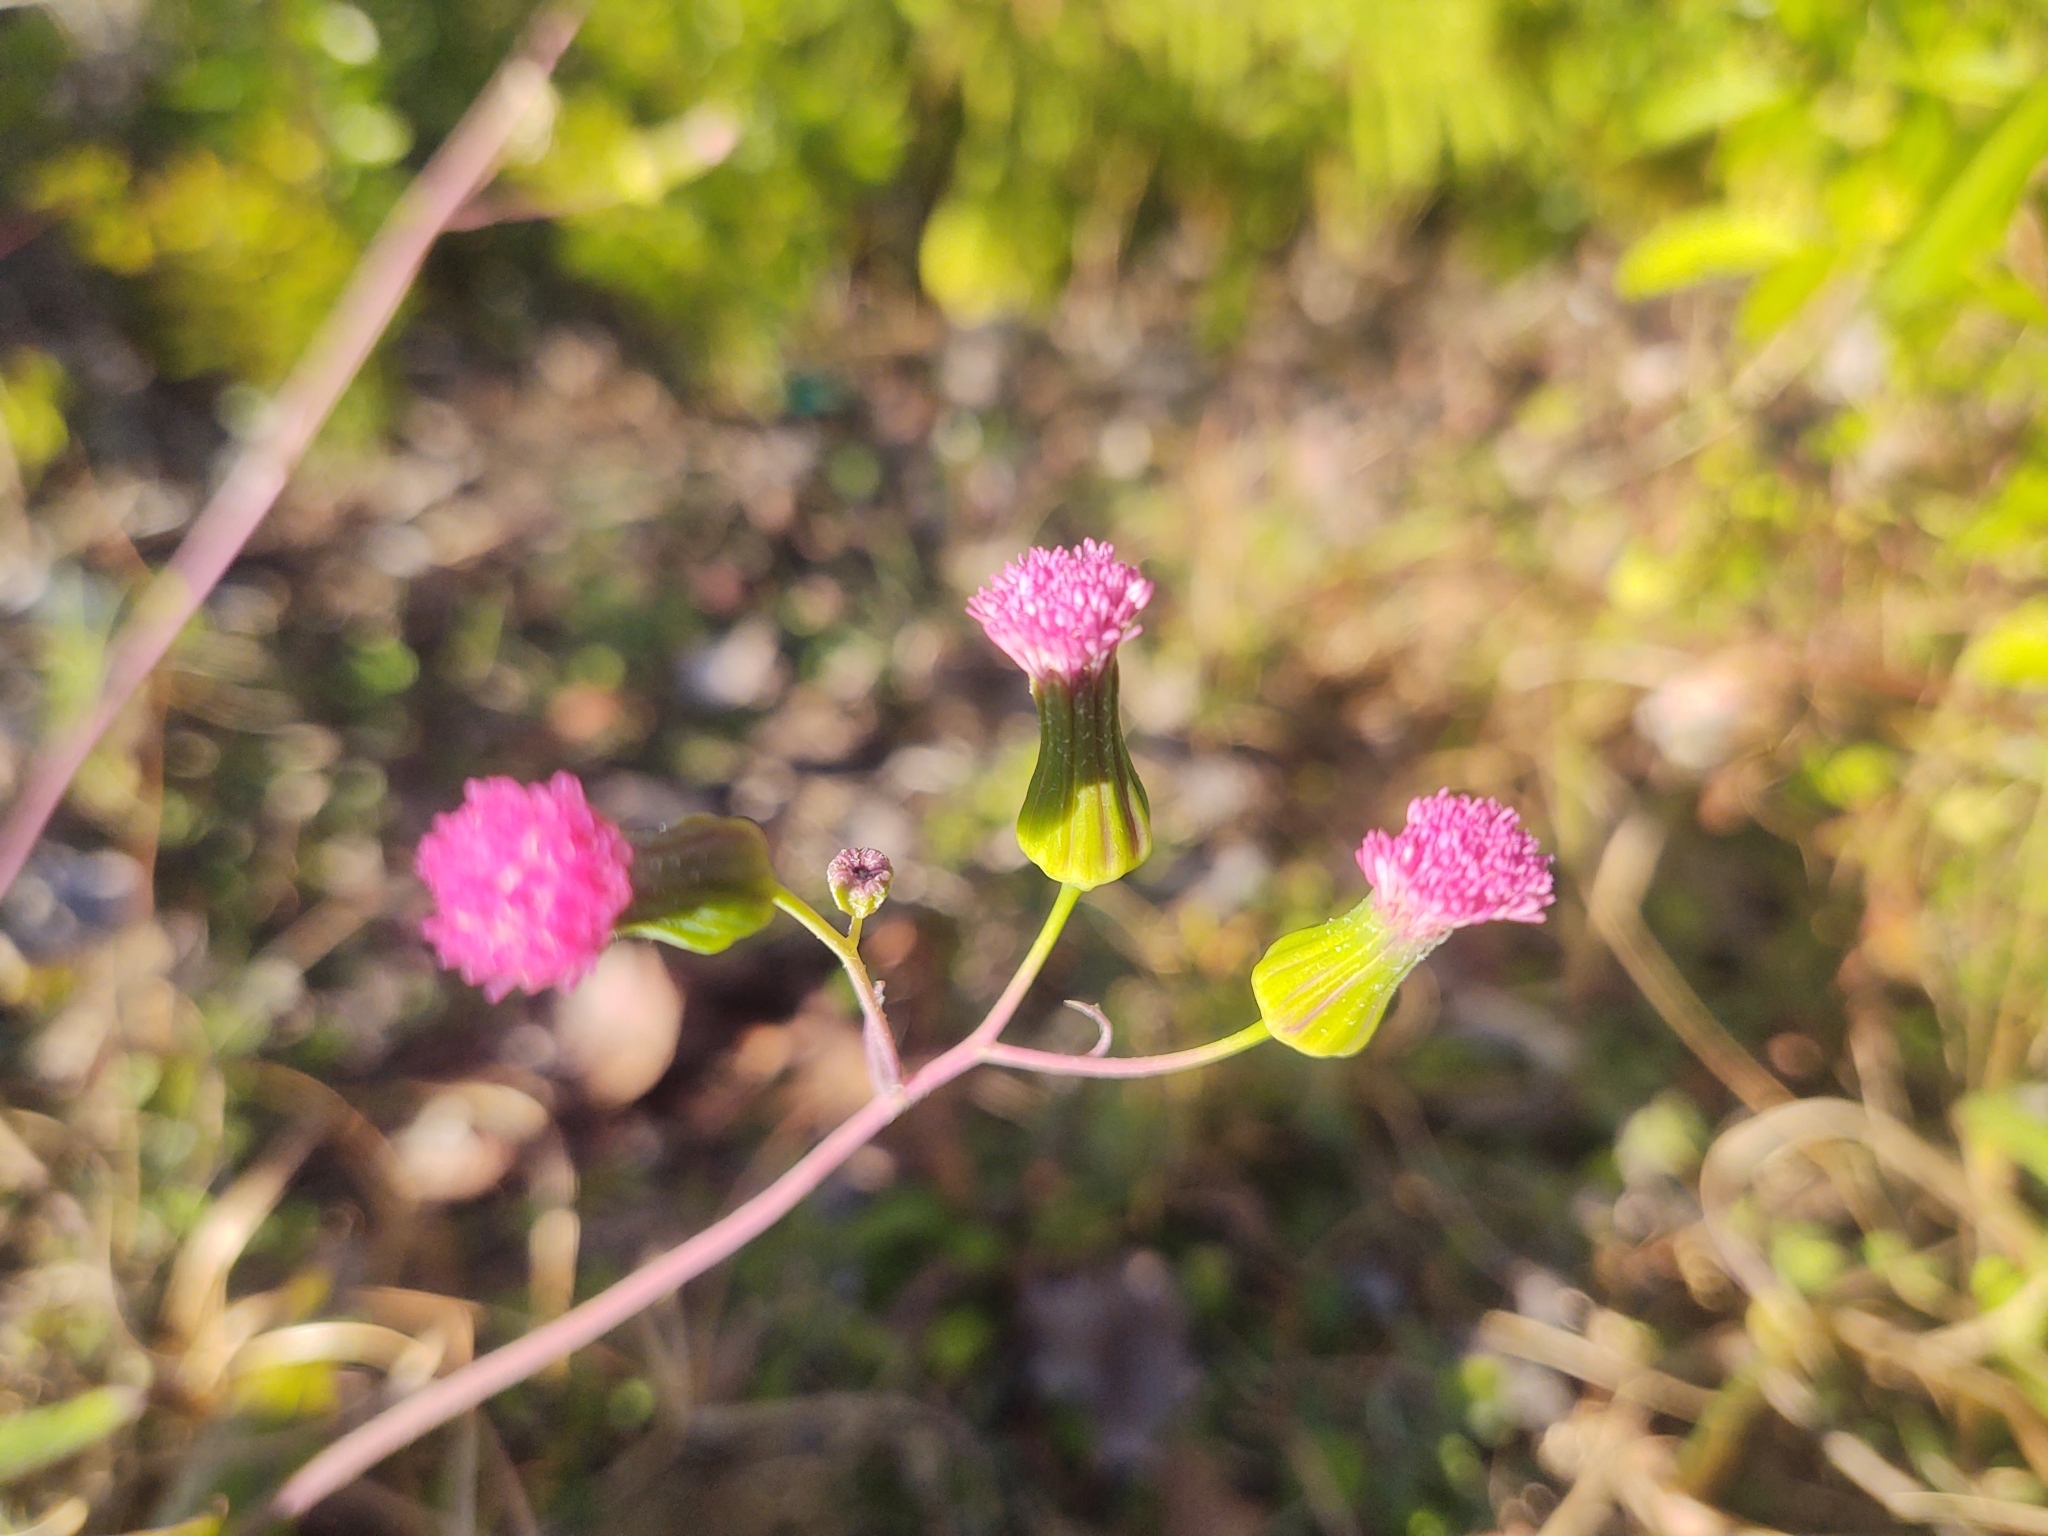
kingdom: Plantae
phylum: Tracheophyta
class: Magnoliopsida
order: Asterales
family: Asteraceae
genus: Emilia
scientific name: Emilia sonchifolia
